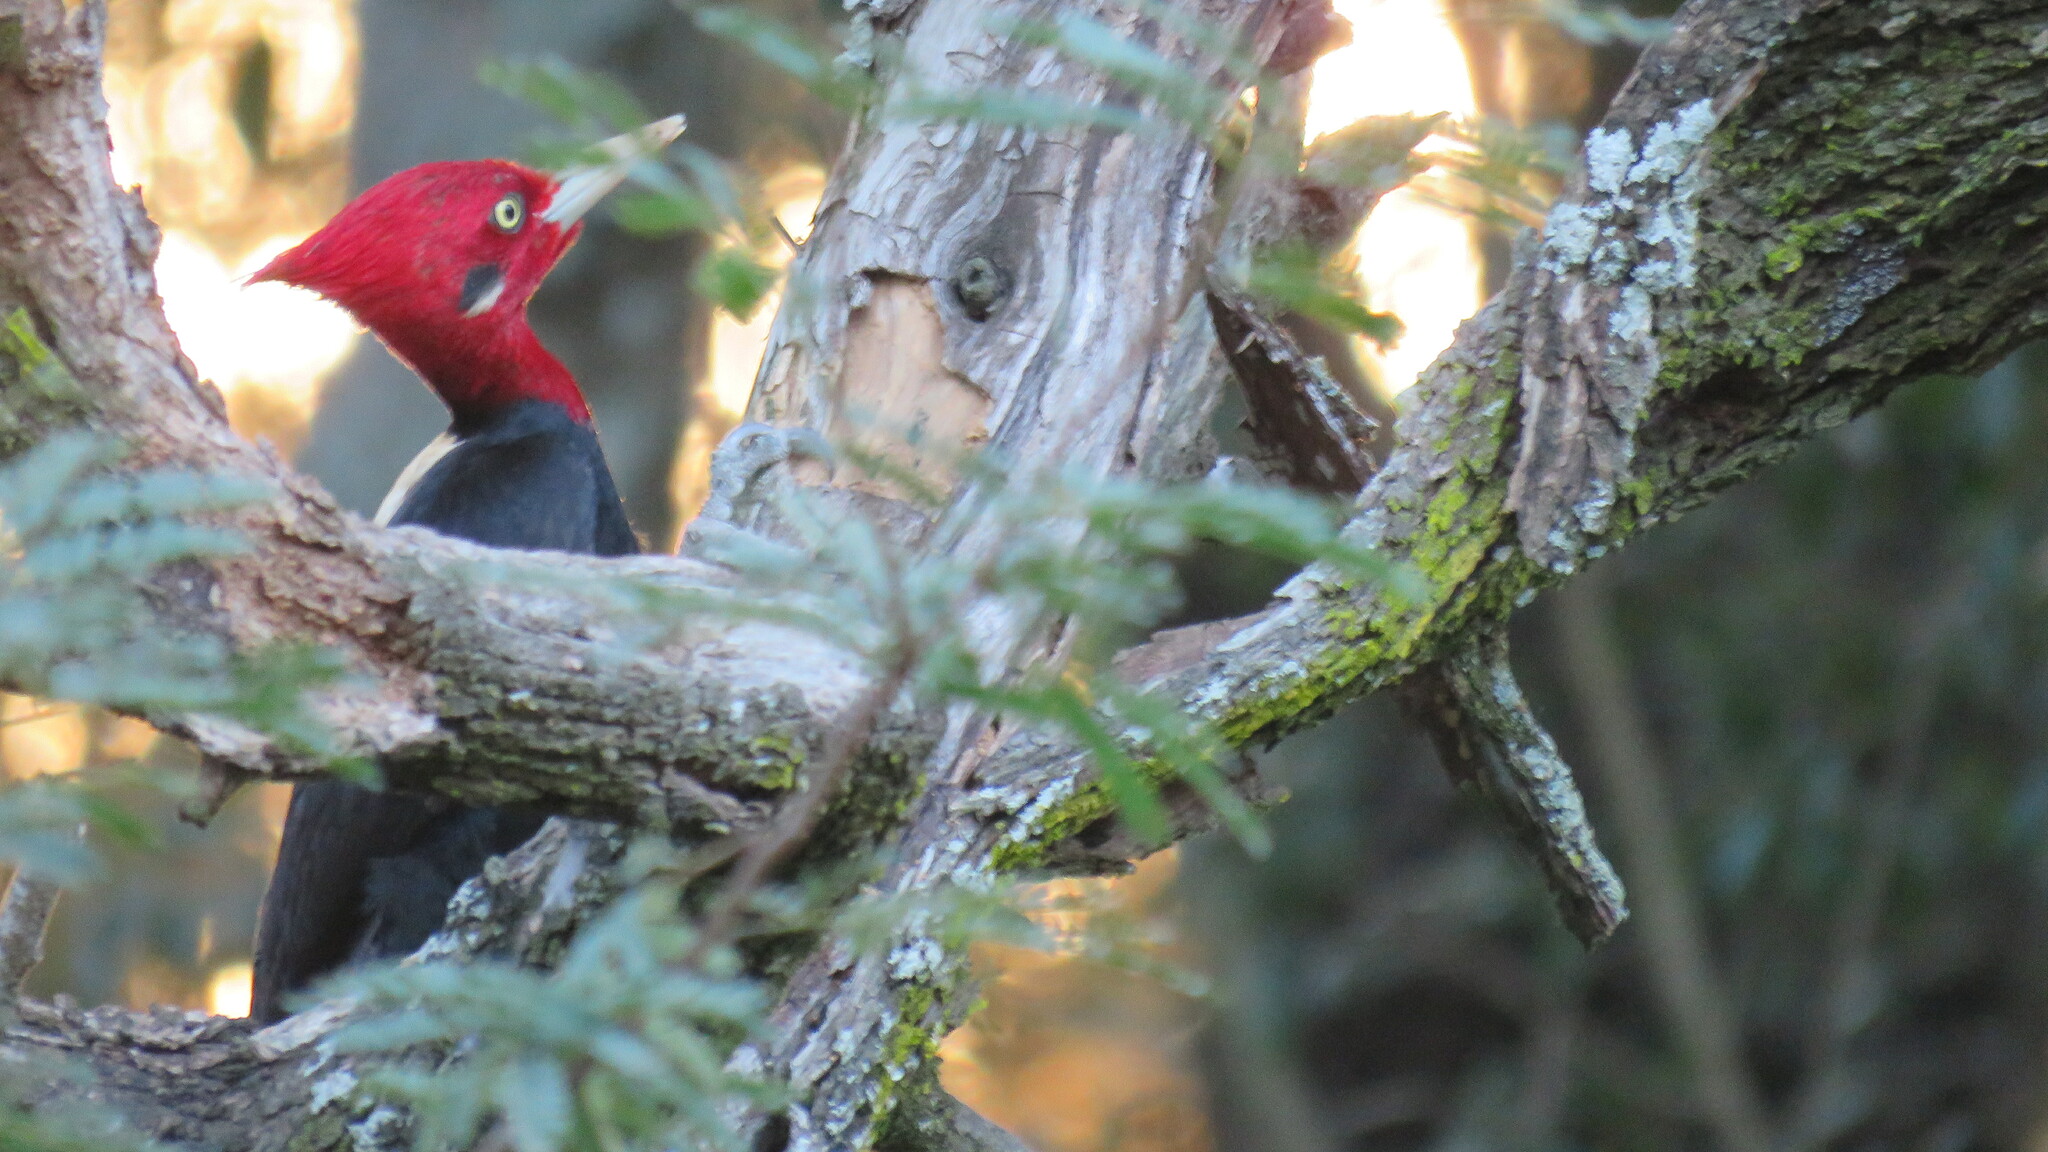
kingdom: Animalia
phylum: Chordata
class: Aves
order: Piciformes
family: Picidae
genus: Campephilus
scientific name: Campephilus leucopogon
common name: Cream-backed woodpecker
